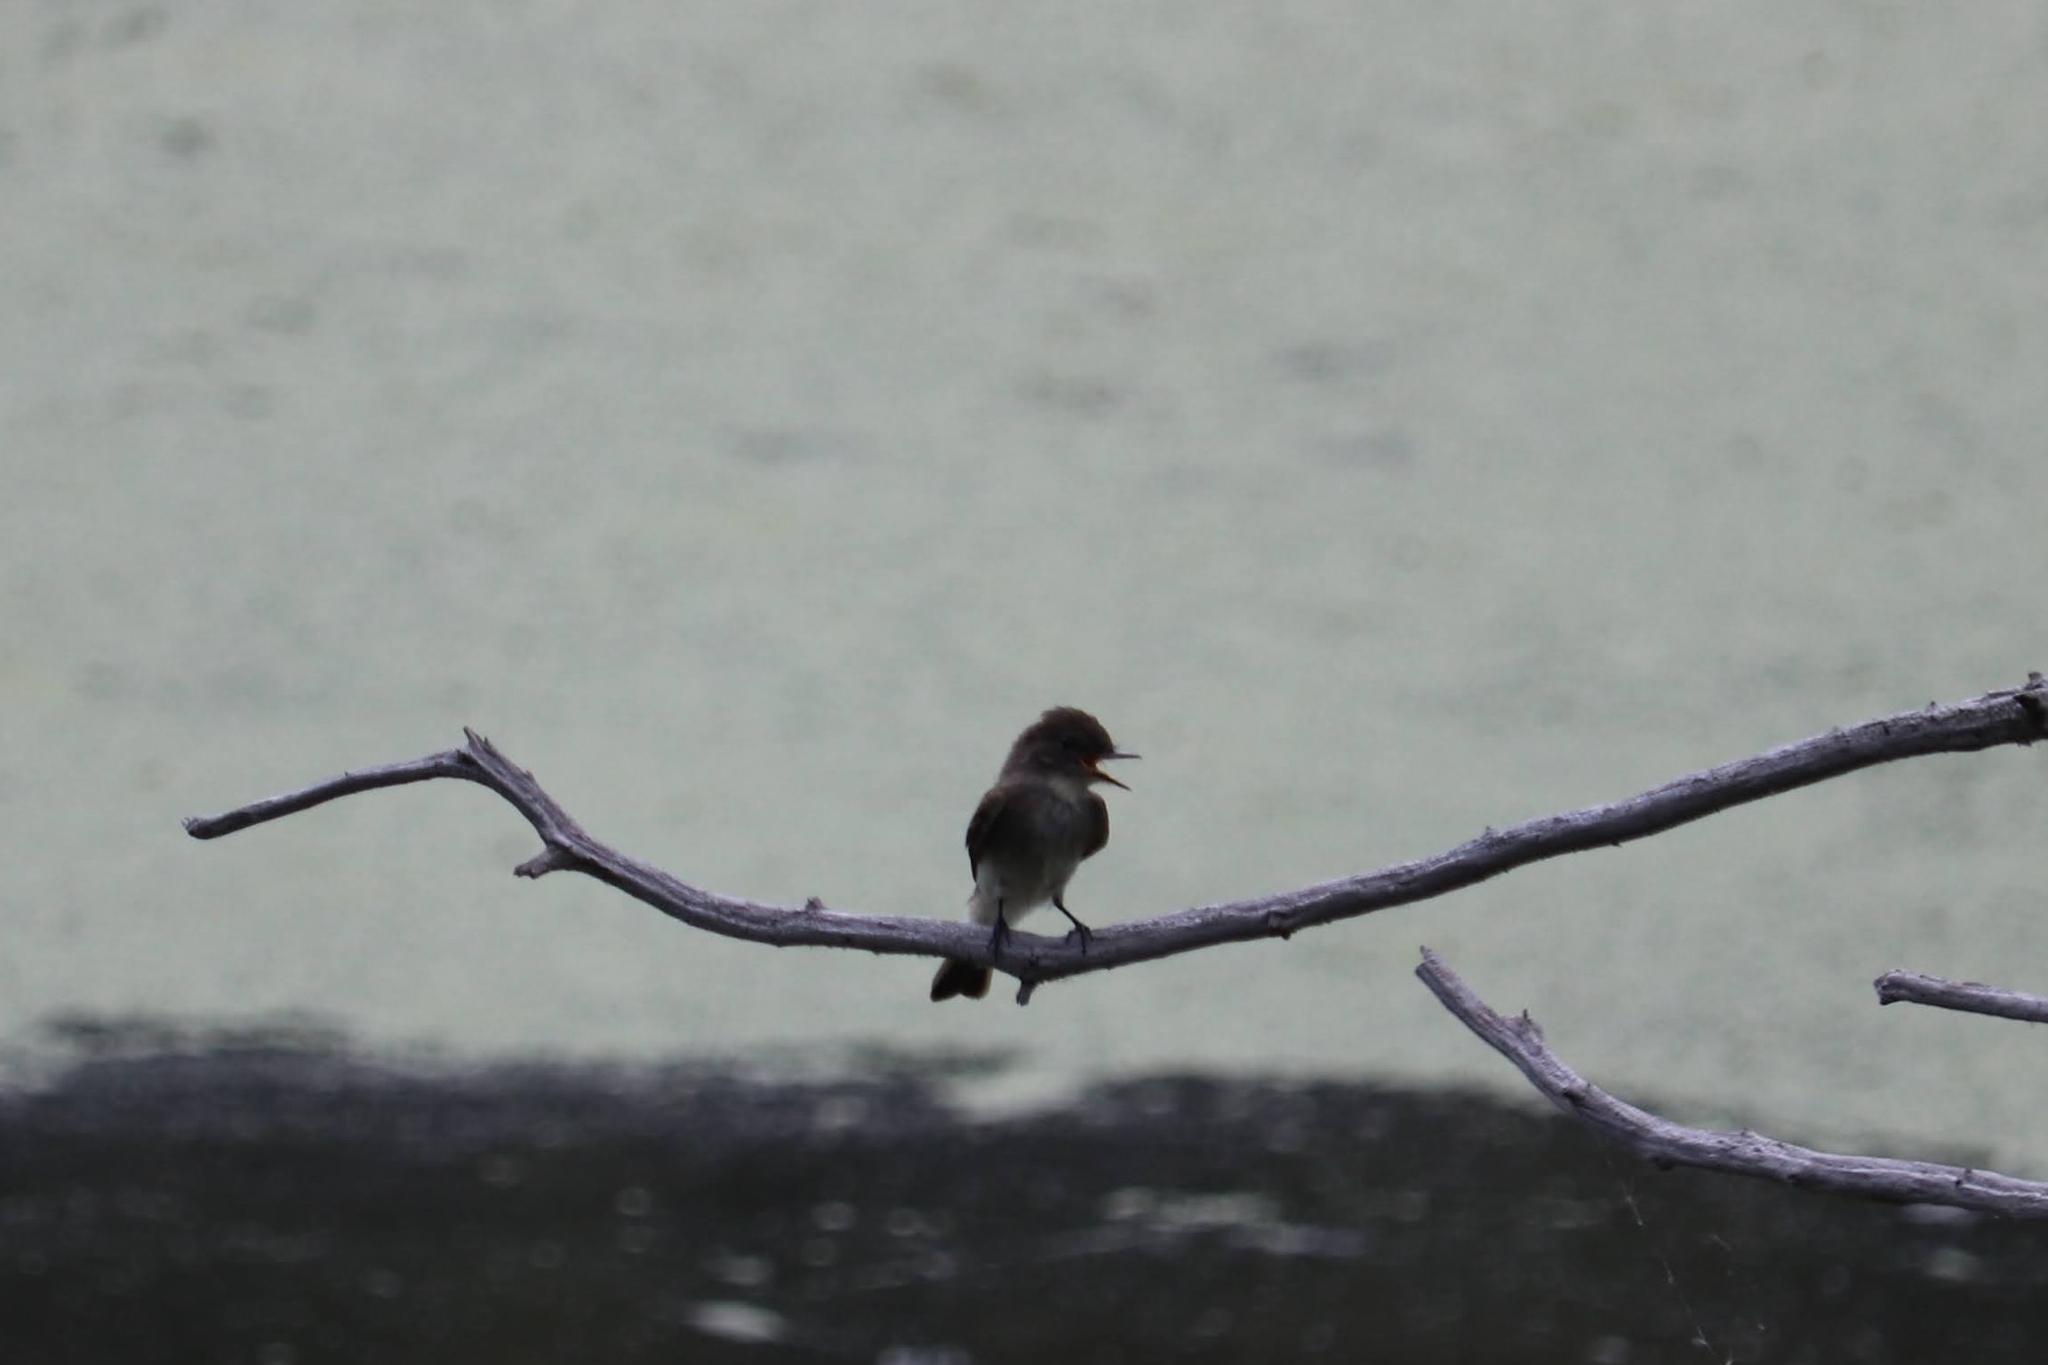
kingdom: Animalia
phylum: Chordata
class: Aves
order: Passeriformes
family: Tyrannidae
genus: Sayornis
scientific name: Sayornis phoebe
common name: Eastern phoebe
